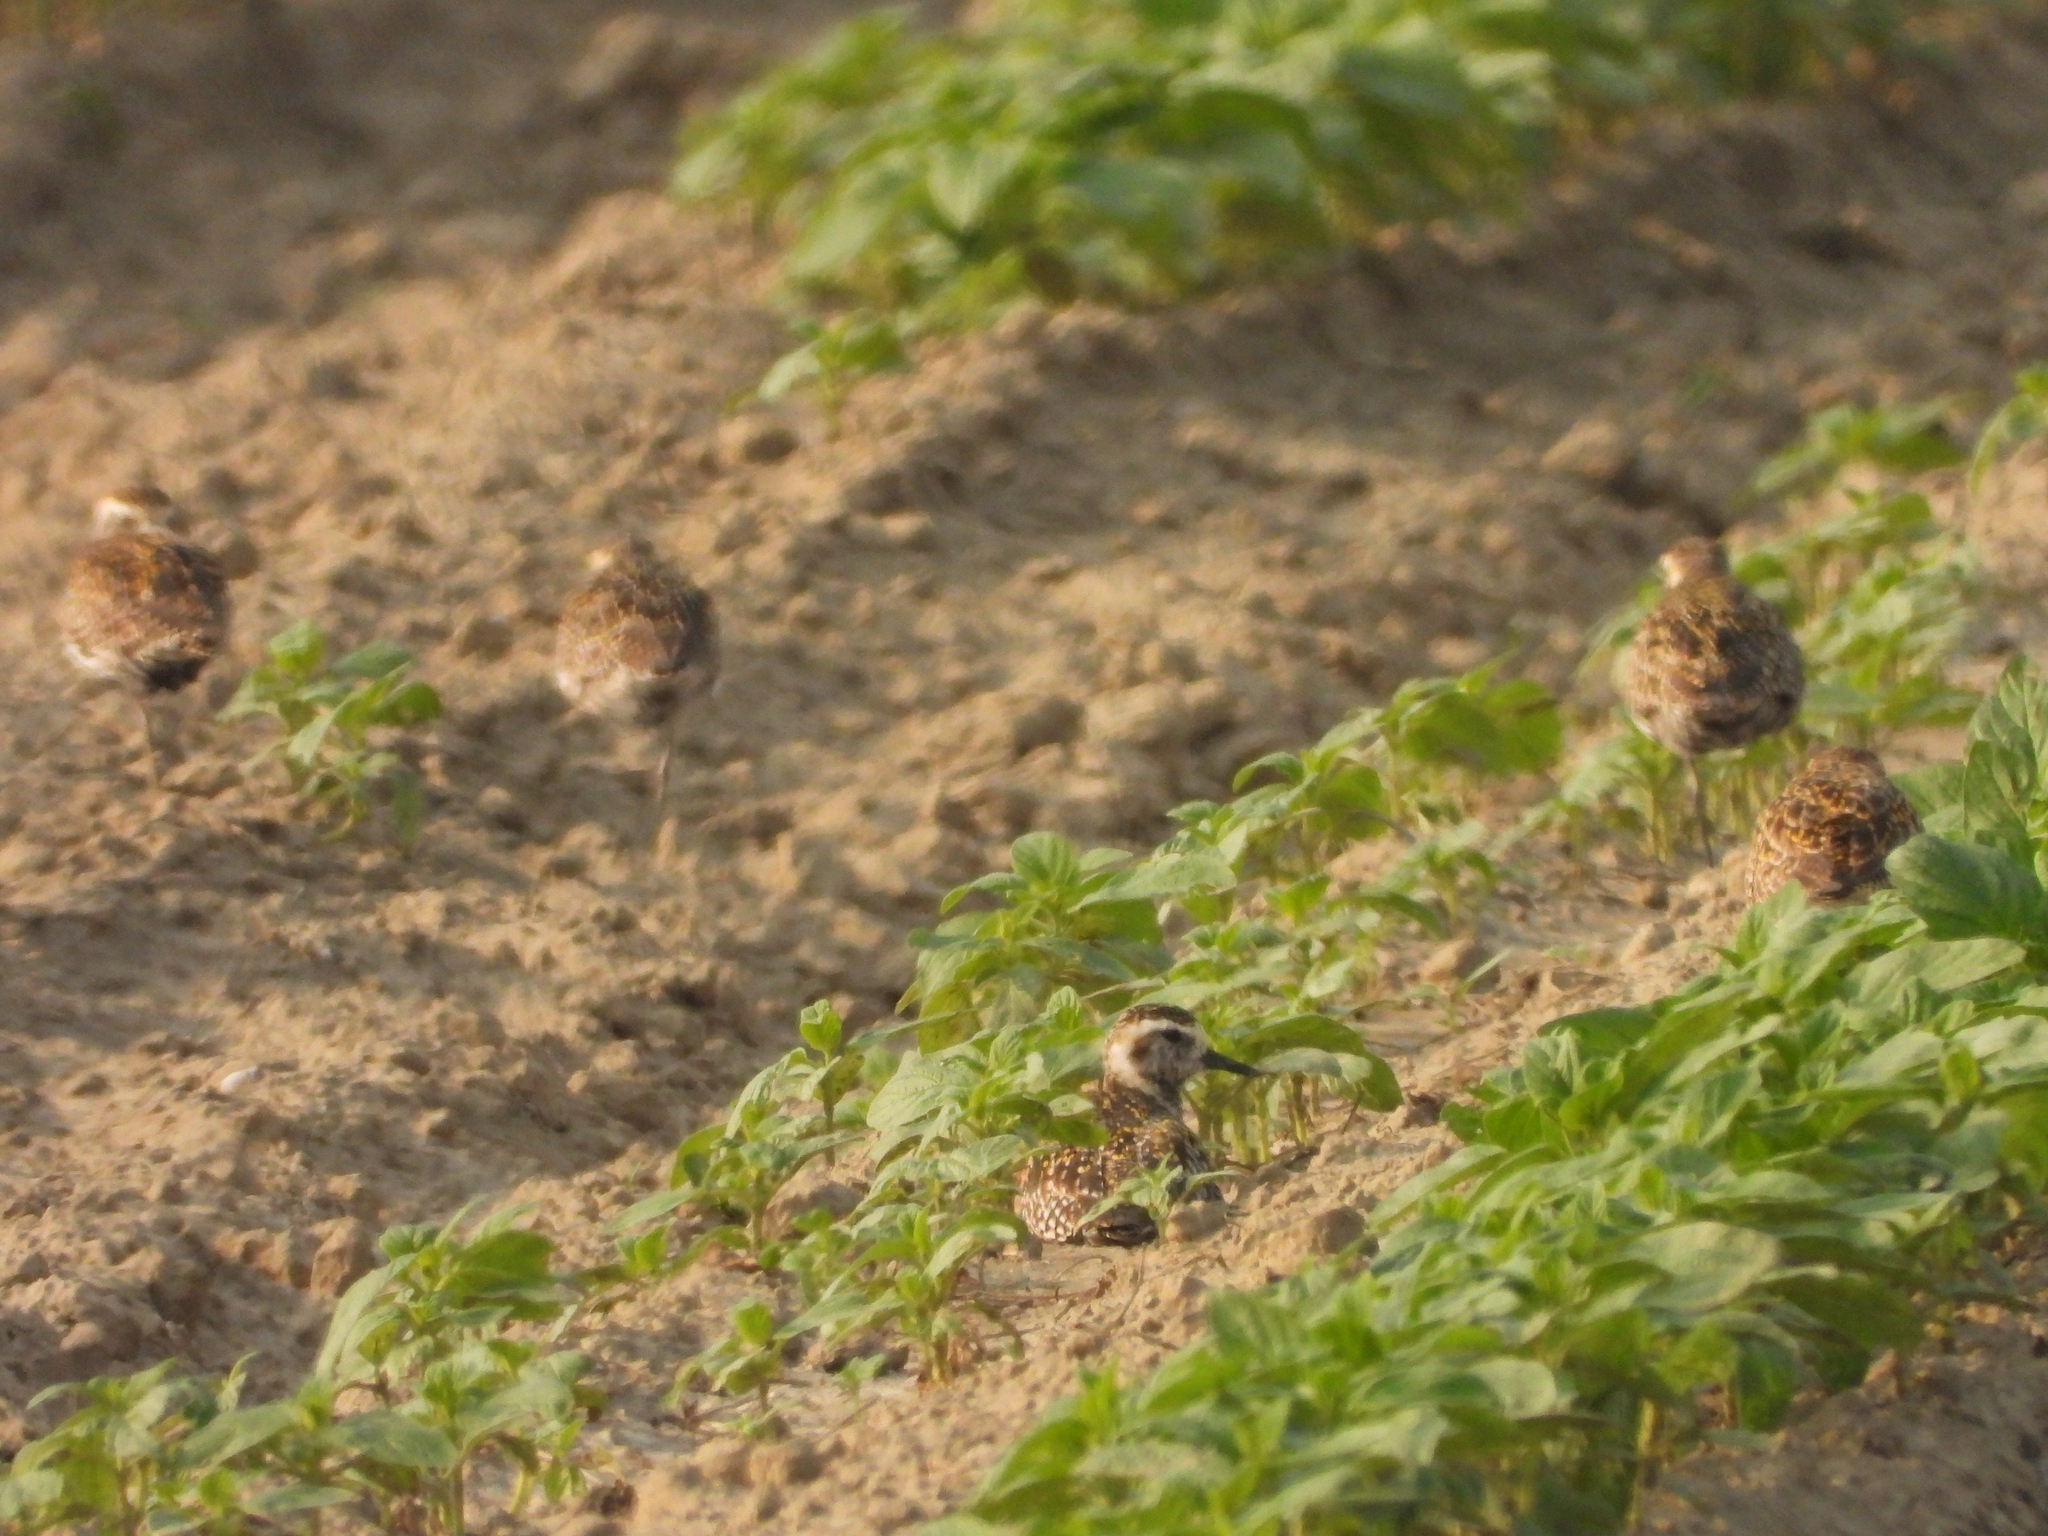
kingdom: Animalia
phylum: Chordata
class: Aves
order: Charadriiformes
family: Charadriidae
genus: Pluvialis
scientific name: Pluvialis fulva
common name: Pacific golden plover
